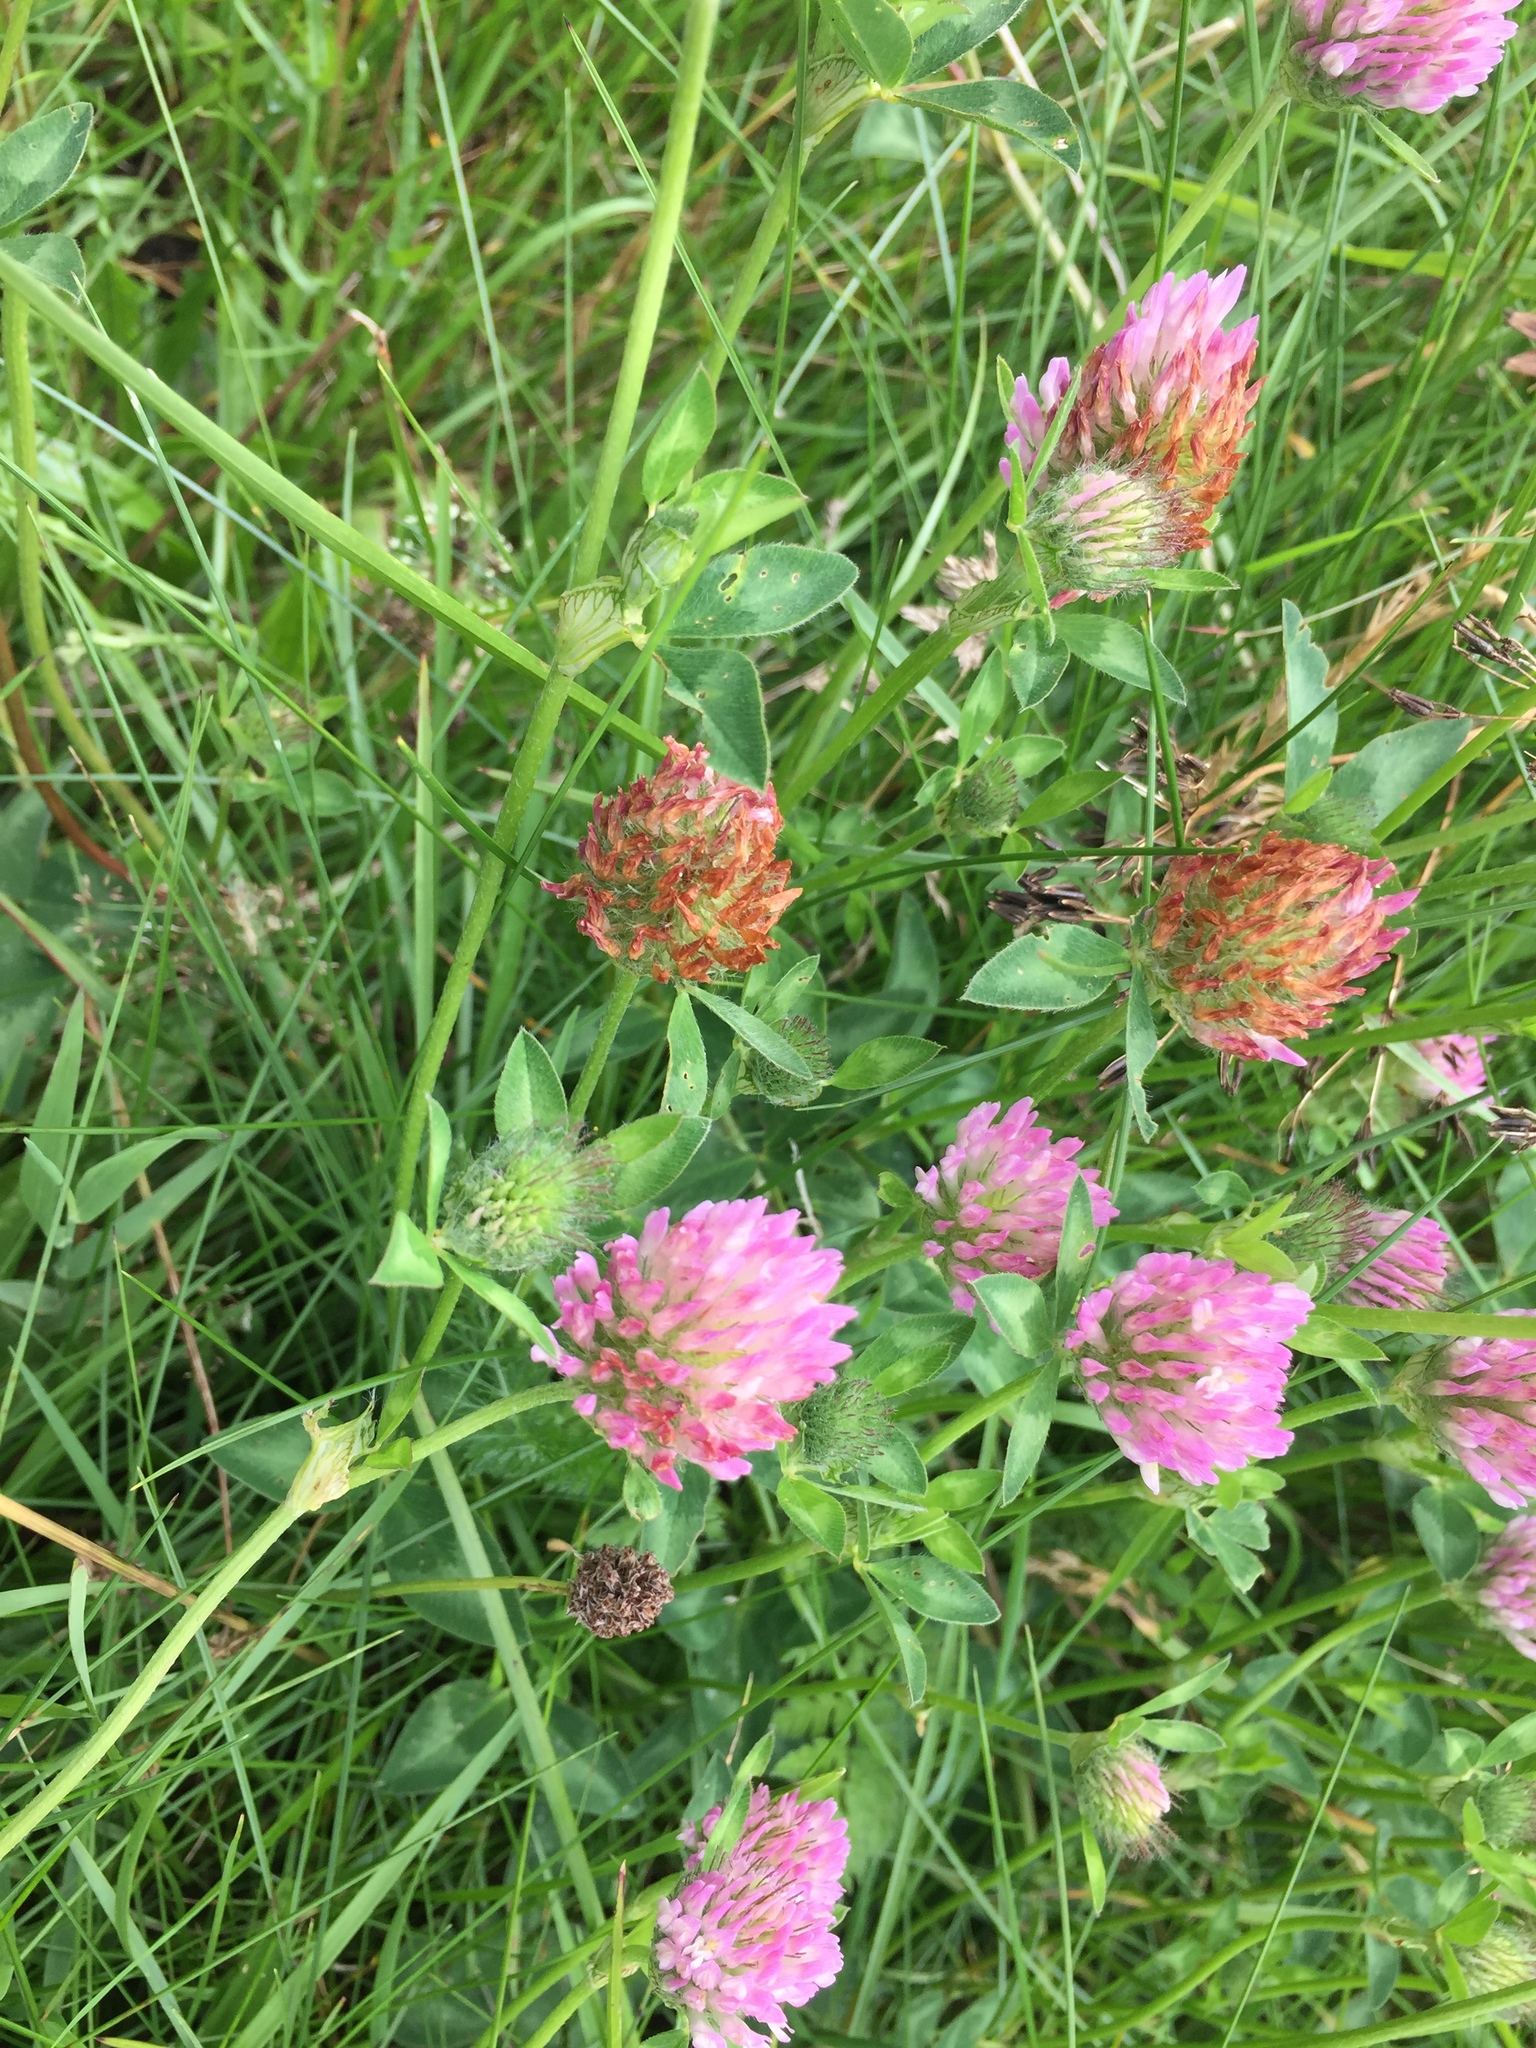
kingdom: Plantae
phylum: Tracheophyta
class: Magnoliopsida
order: Fabales
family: Fabaceae
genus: Trifolium
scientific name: Trifolium pratense
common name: Red clover
